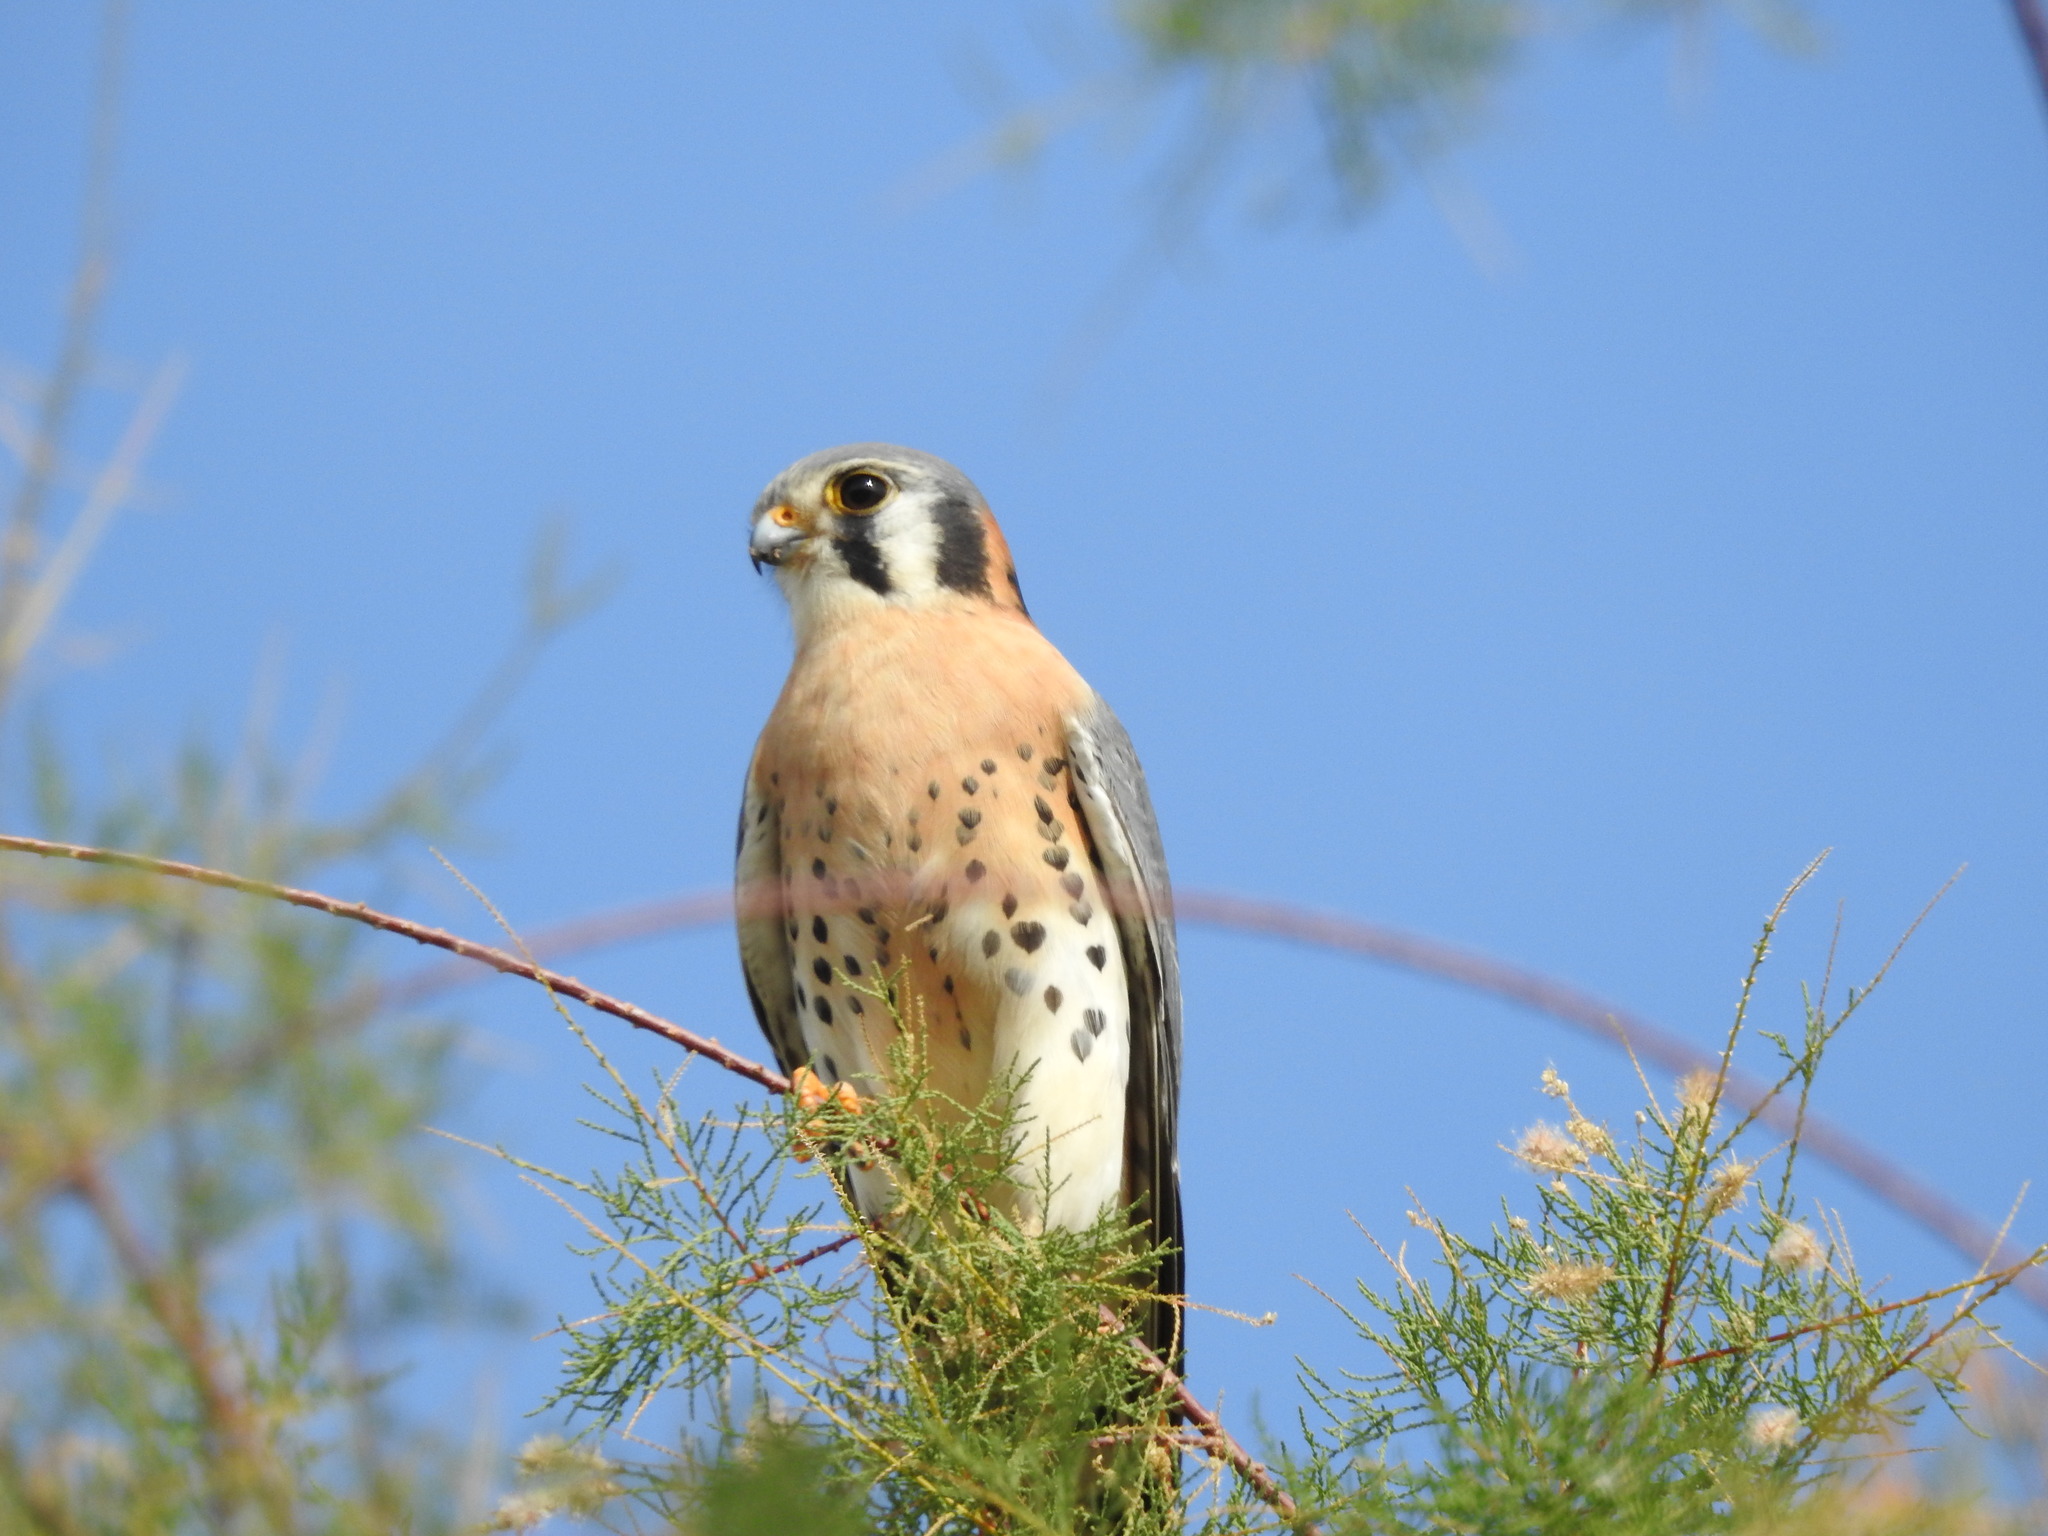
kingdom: Animalia
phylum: Chordata
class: Aves
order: Falconiformes
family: Falconidae
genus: Falco
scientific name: Falco sparverius
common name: American kestrel
